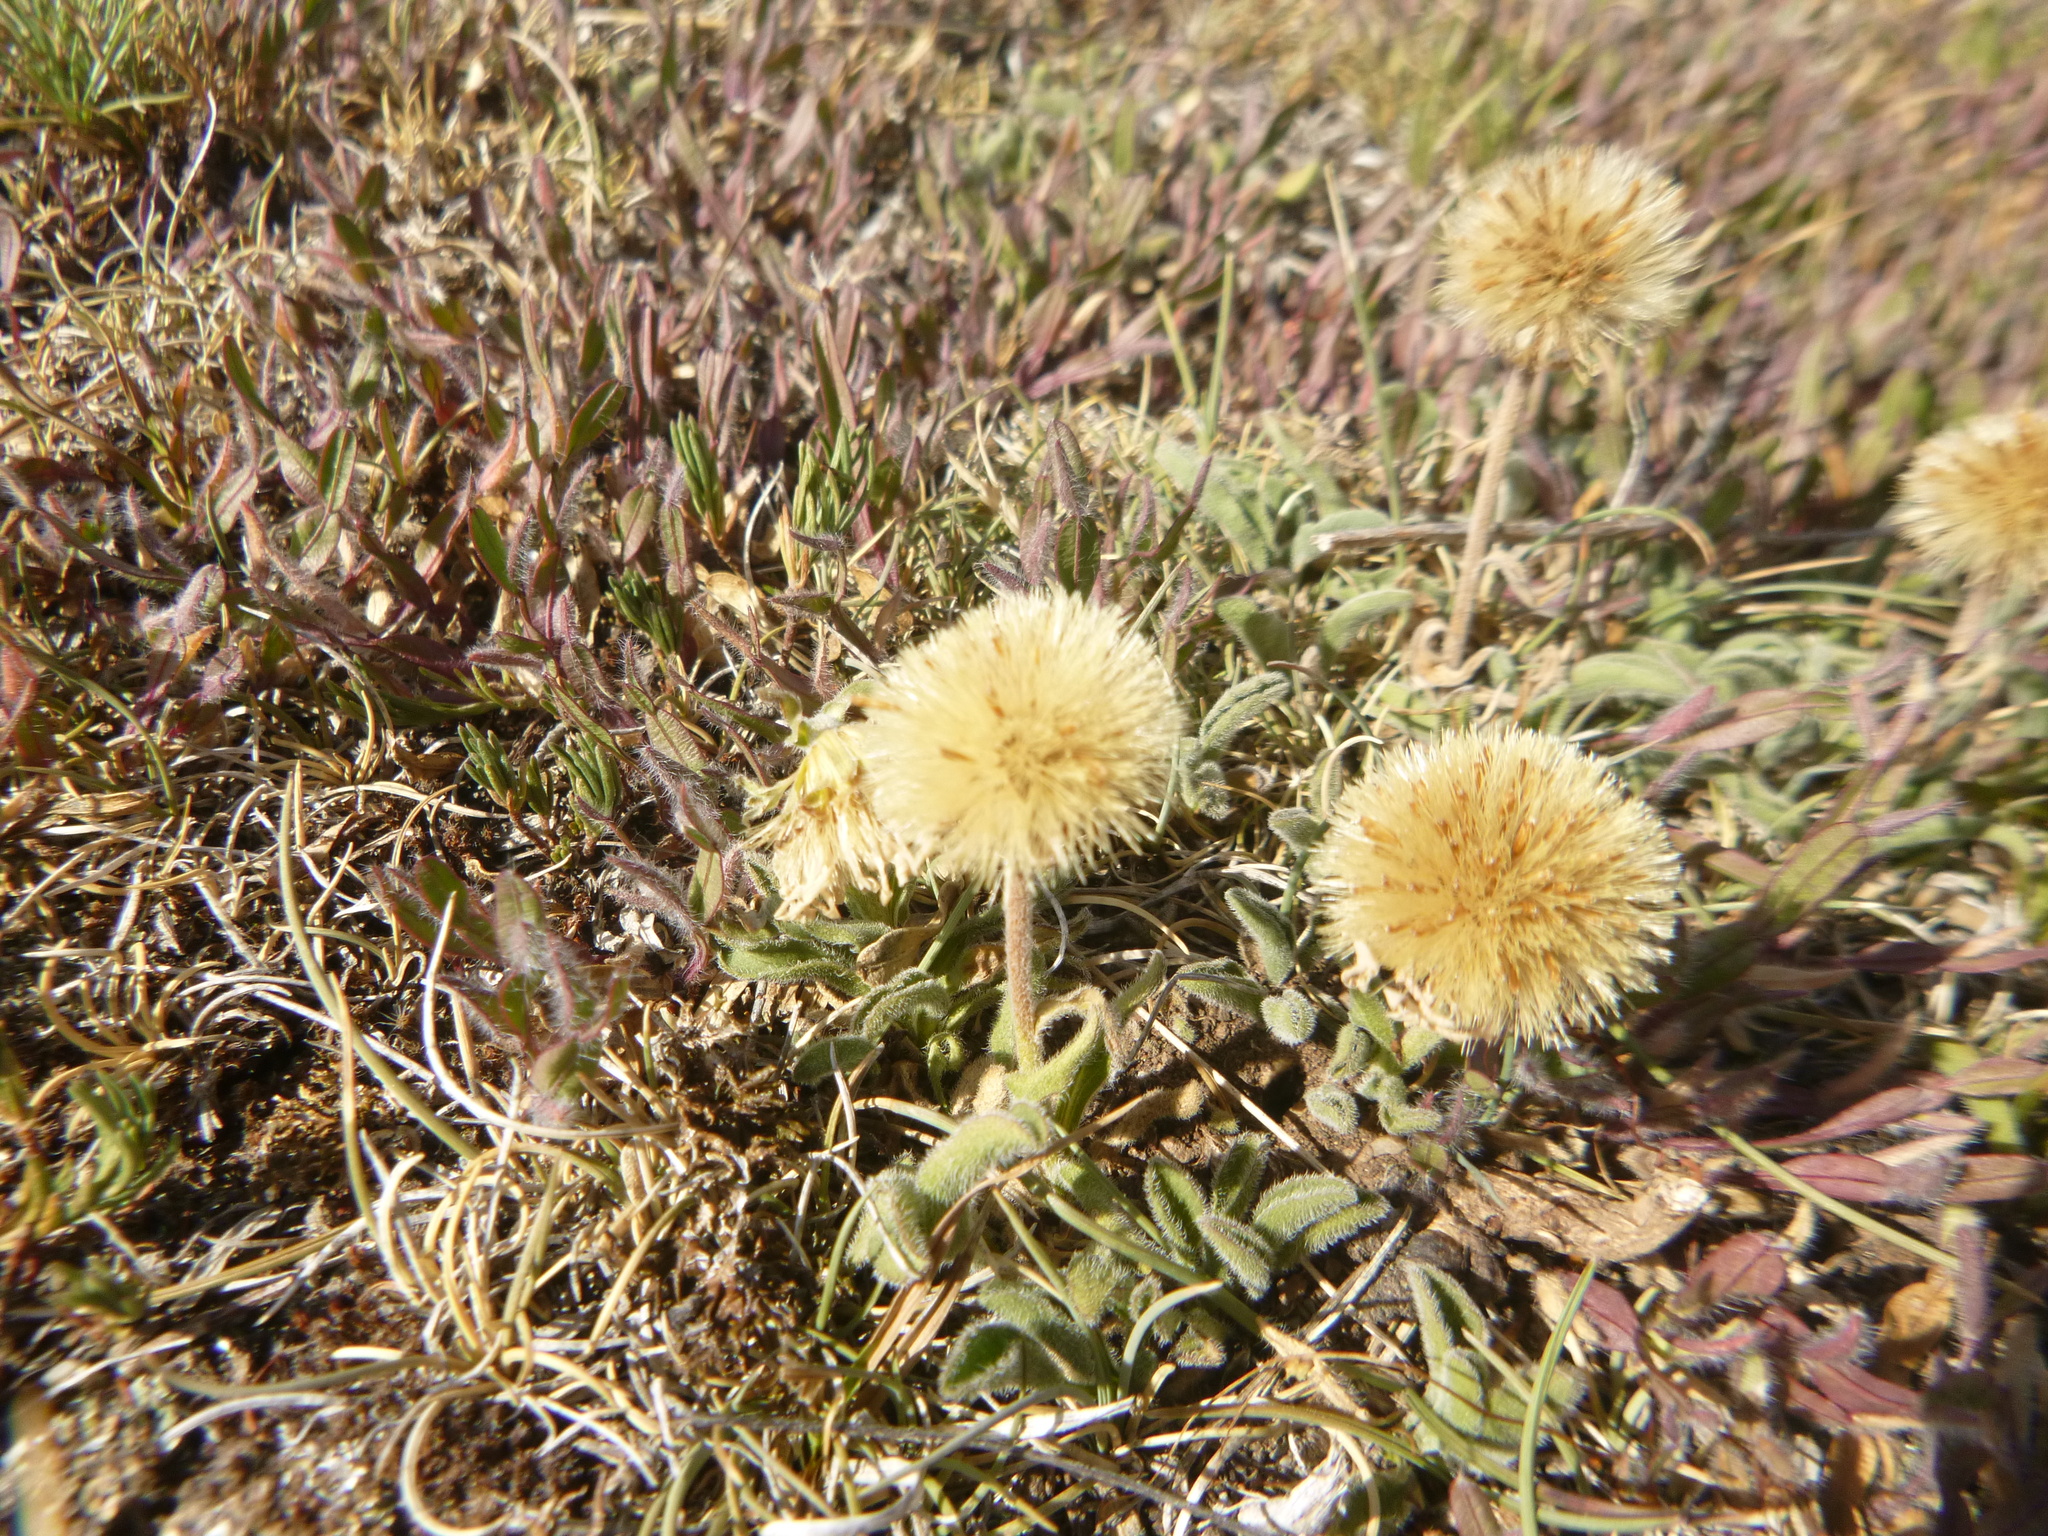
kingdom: Plantae
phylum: Tracheophyta
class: Magnoliopsida
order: Asterales
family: Asteraceae
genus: Aster
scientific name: Aster alpinus
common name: Alpine aster
